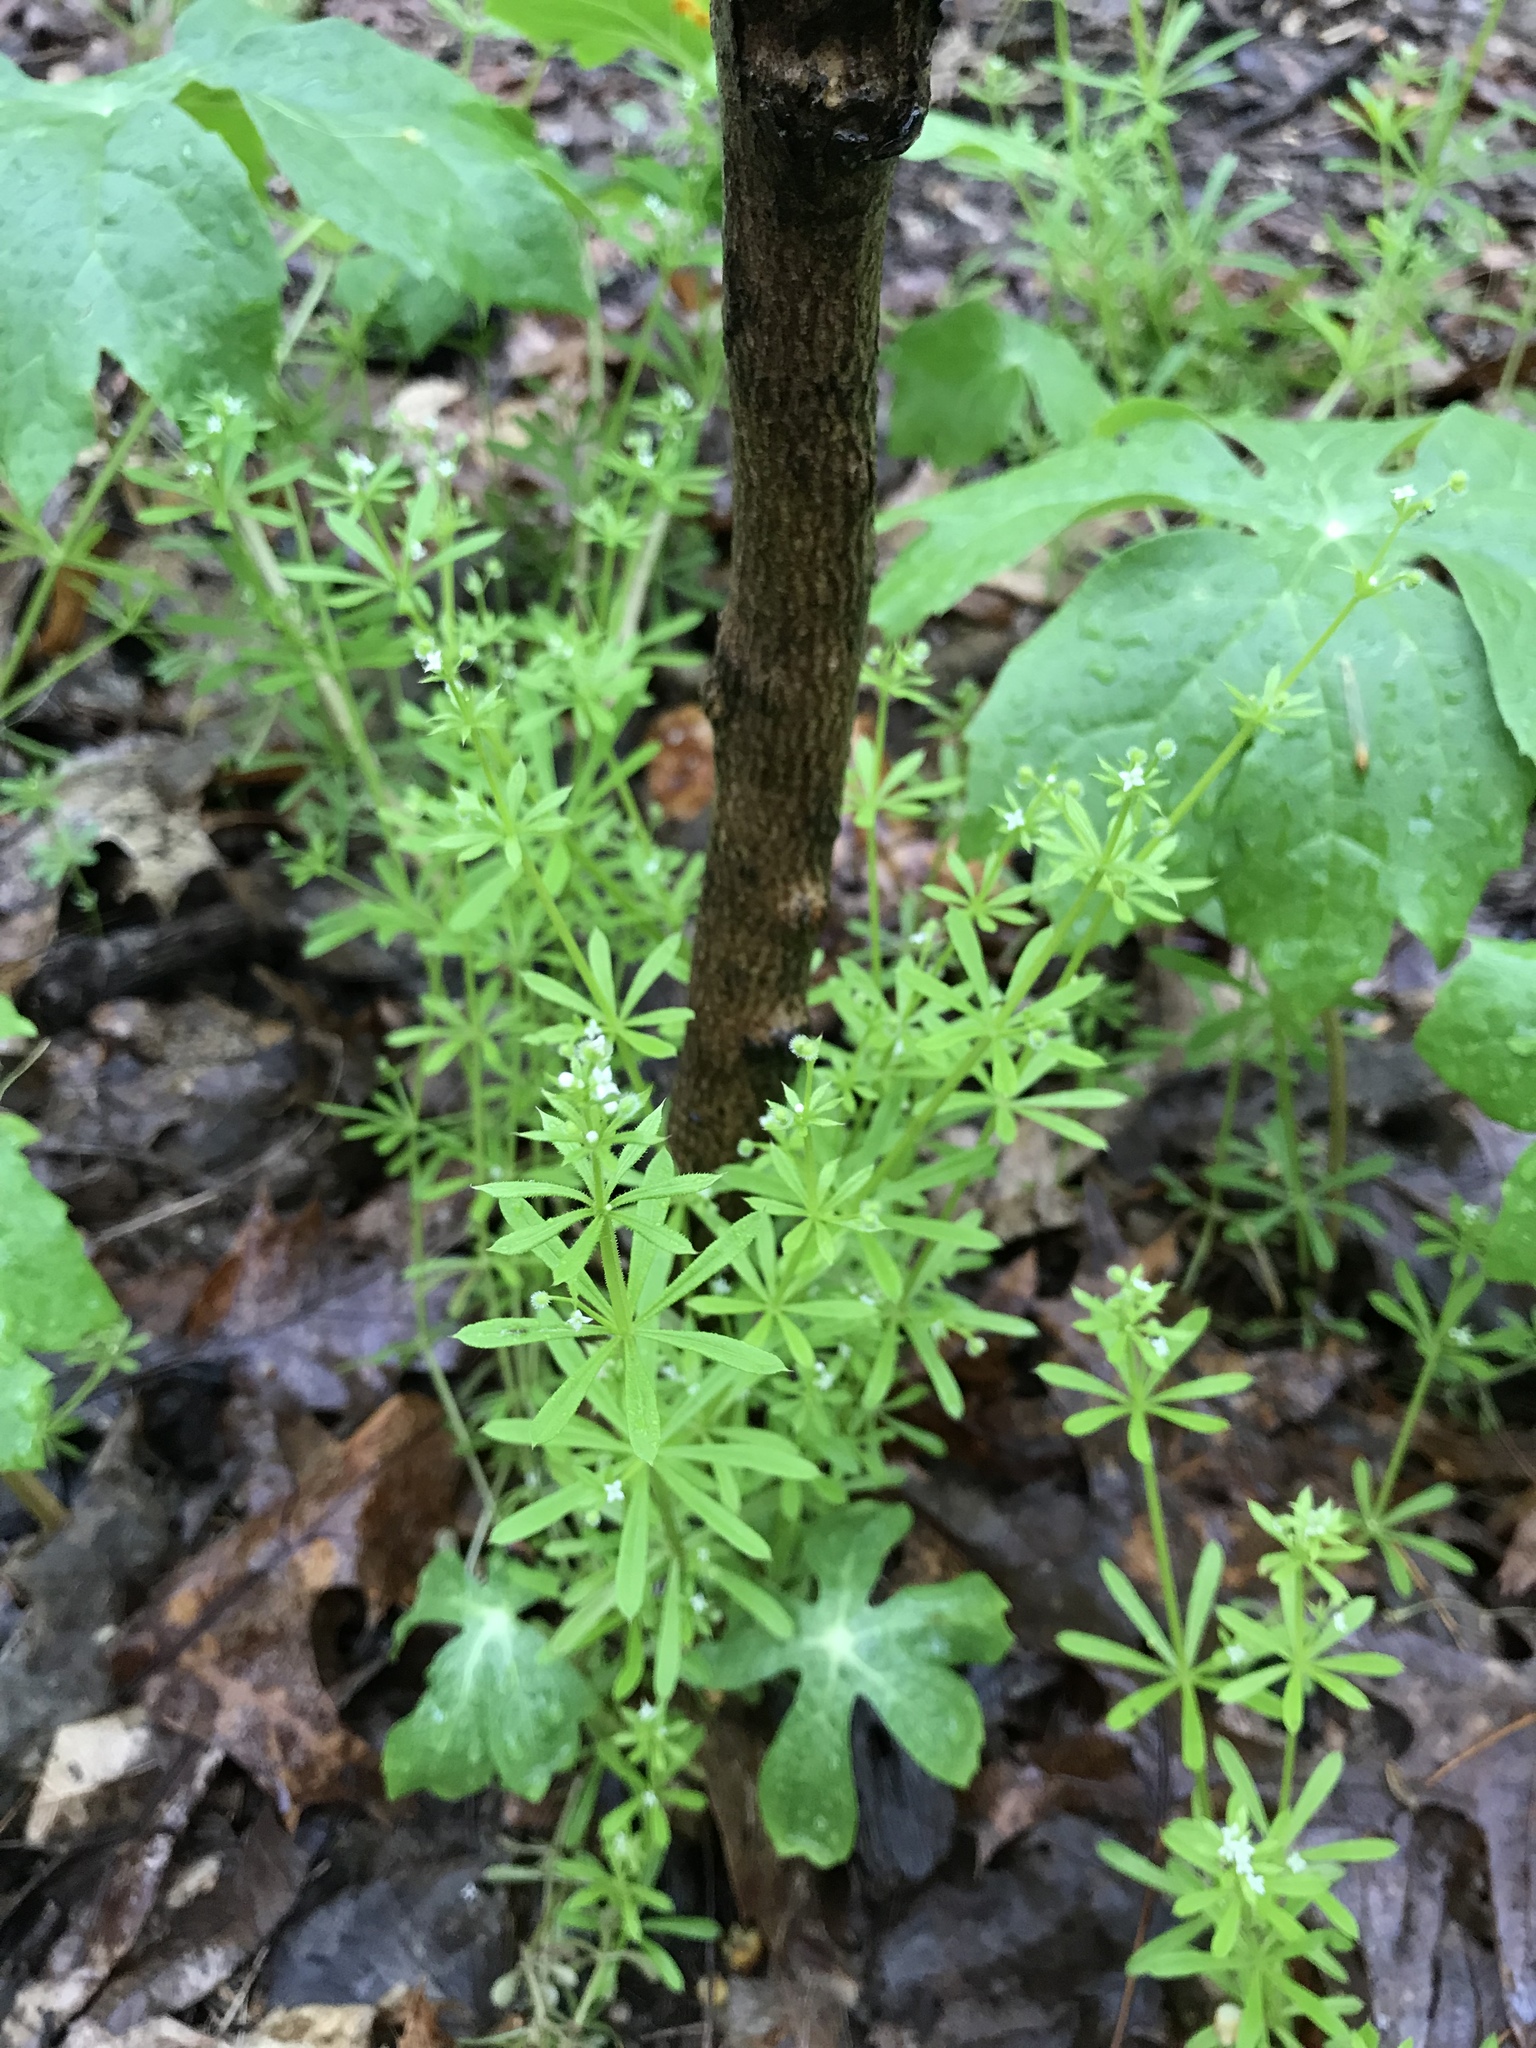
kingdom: Plantae
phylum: Tracheophyta
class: Magnoliopsida
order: Gentianales
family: Rubiaceae
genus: Galium
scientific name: Galium aparine
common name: Cleavers
